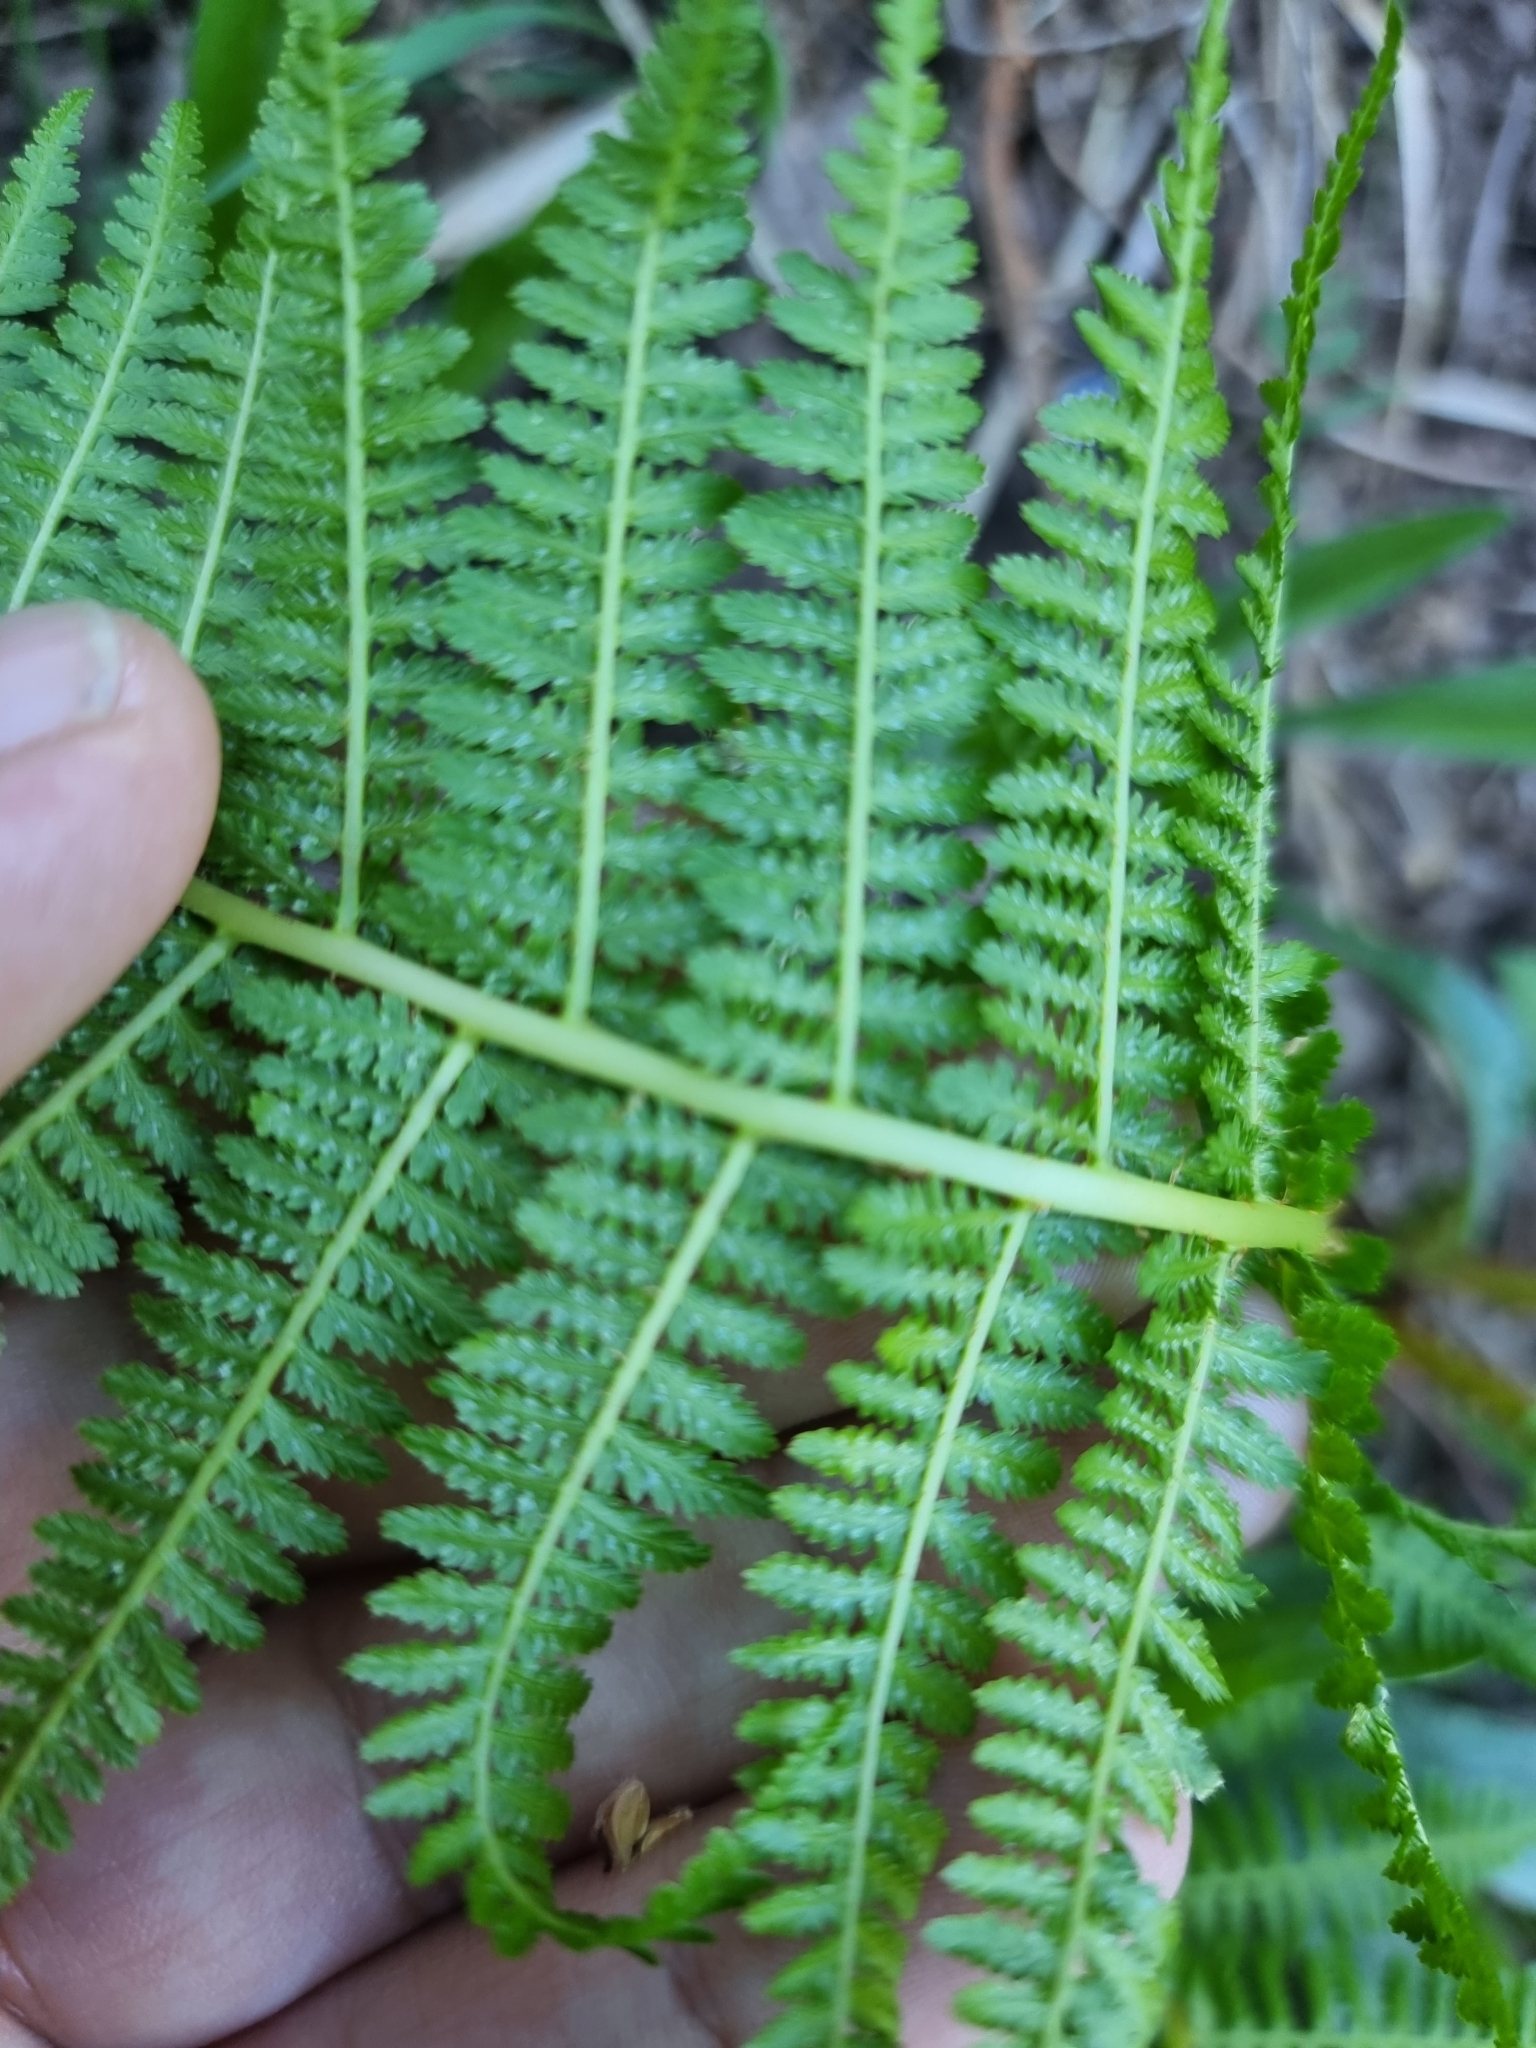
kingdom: Plantae
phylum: Tracheophyta
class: Polypodiopsida
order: Polypodiales
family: Athyriaceae
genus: Athyrium
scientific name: Athyrium filix-femina
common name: Lady fern
